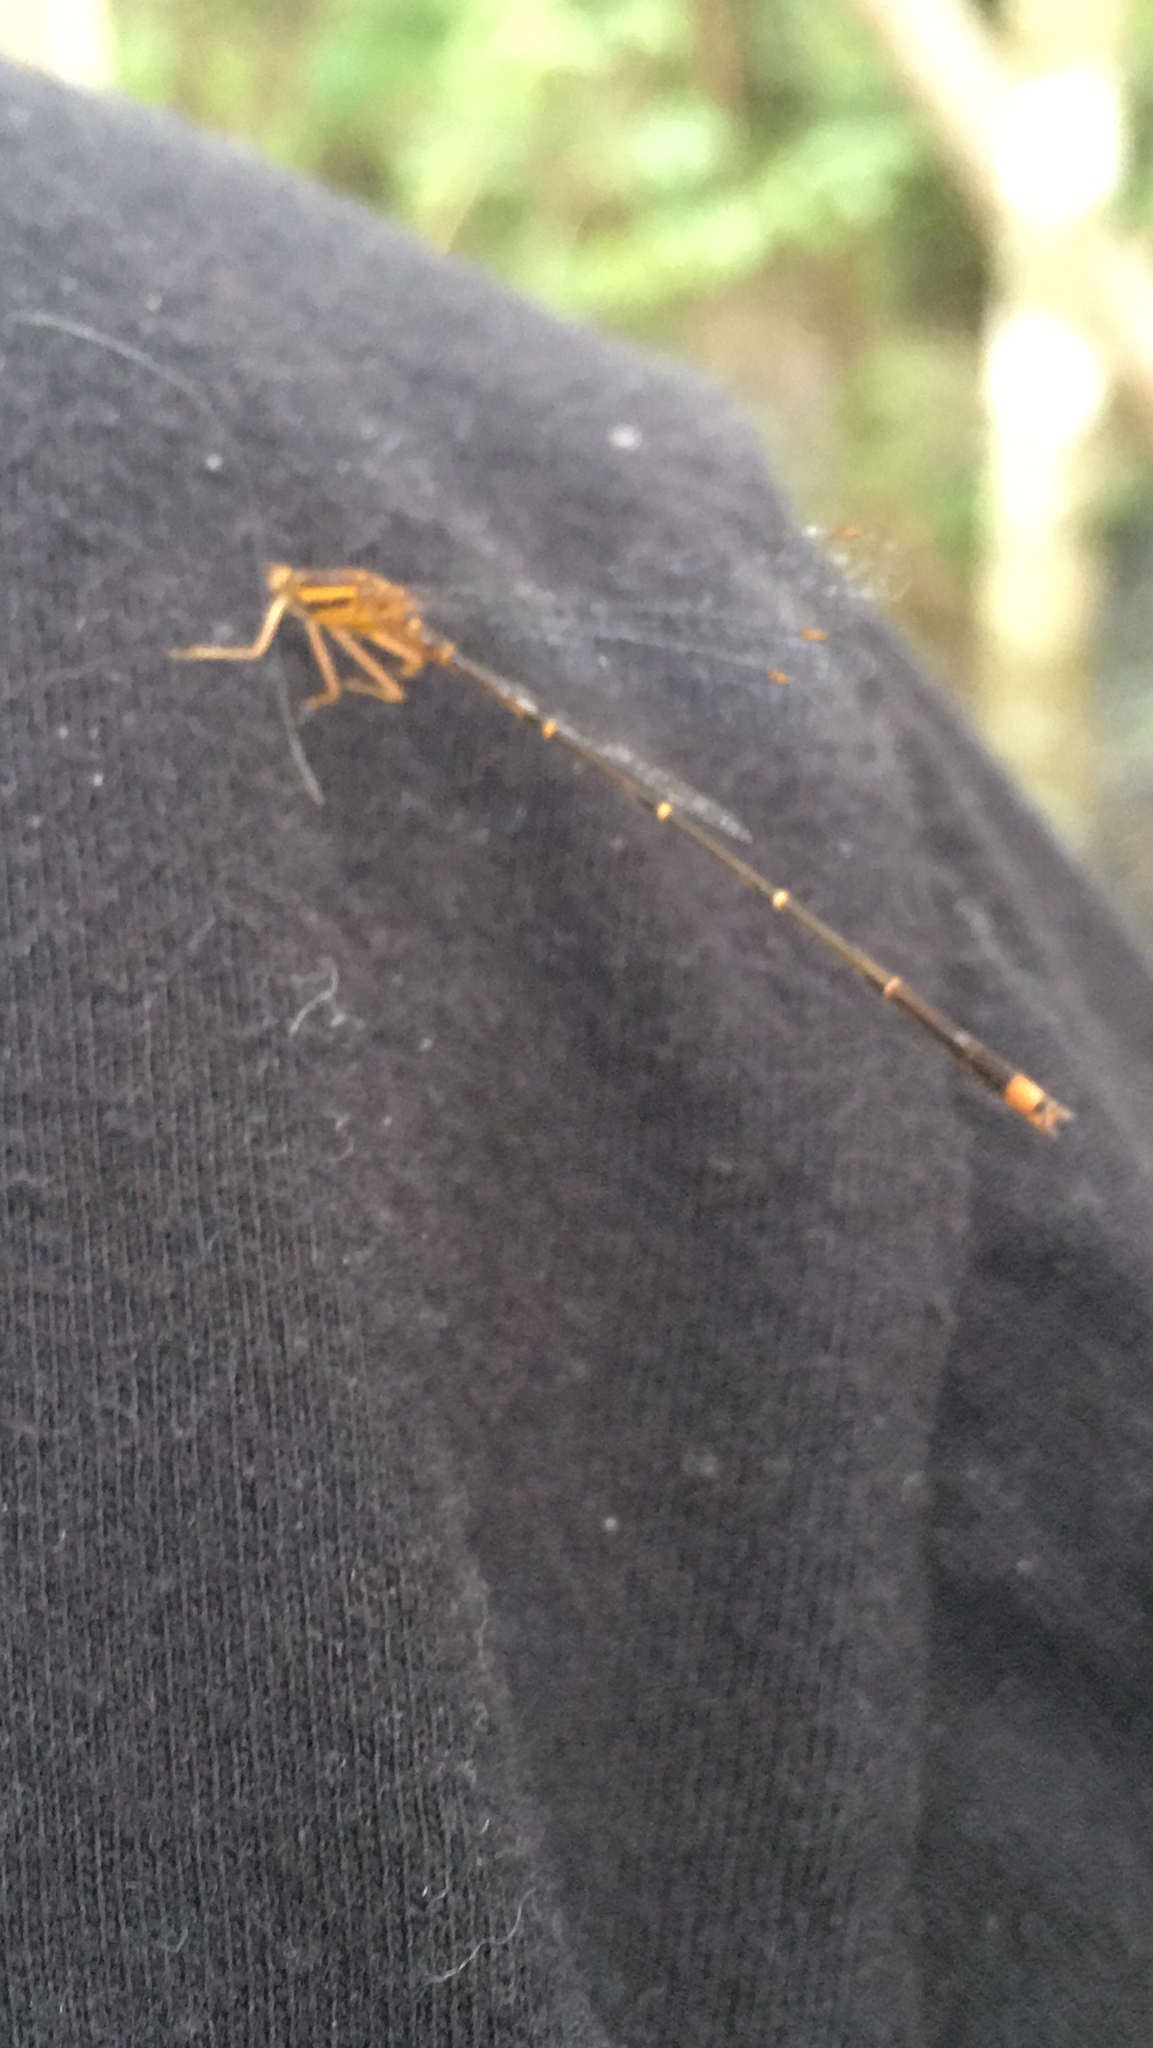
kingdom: Animalia
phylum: Arthropoda
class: Insecta
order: Odonata
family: Coenagrionidae
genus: Enallagma
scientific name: Enallagma signatum
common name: Orange bluet
